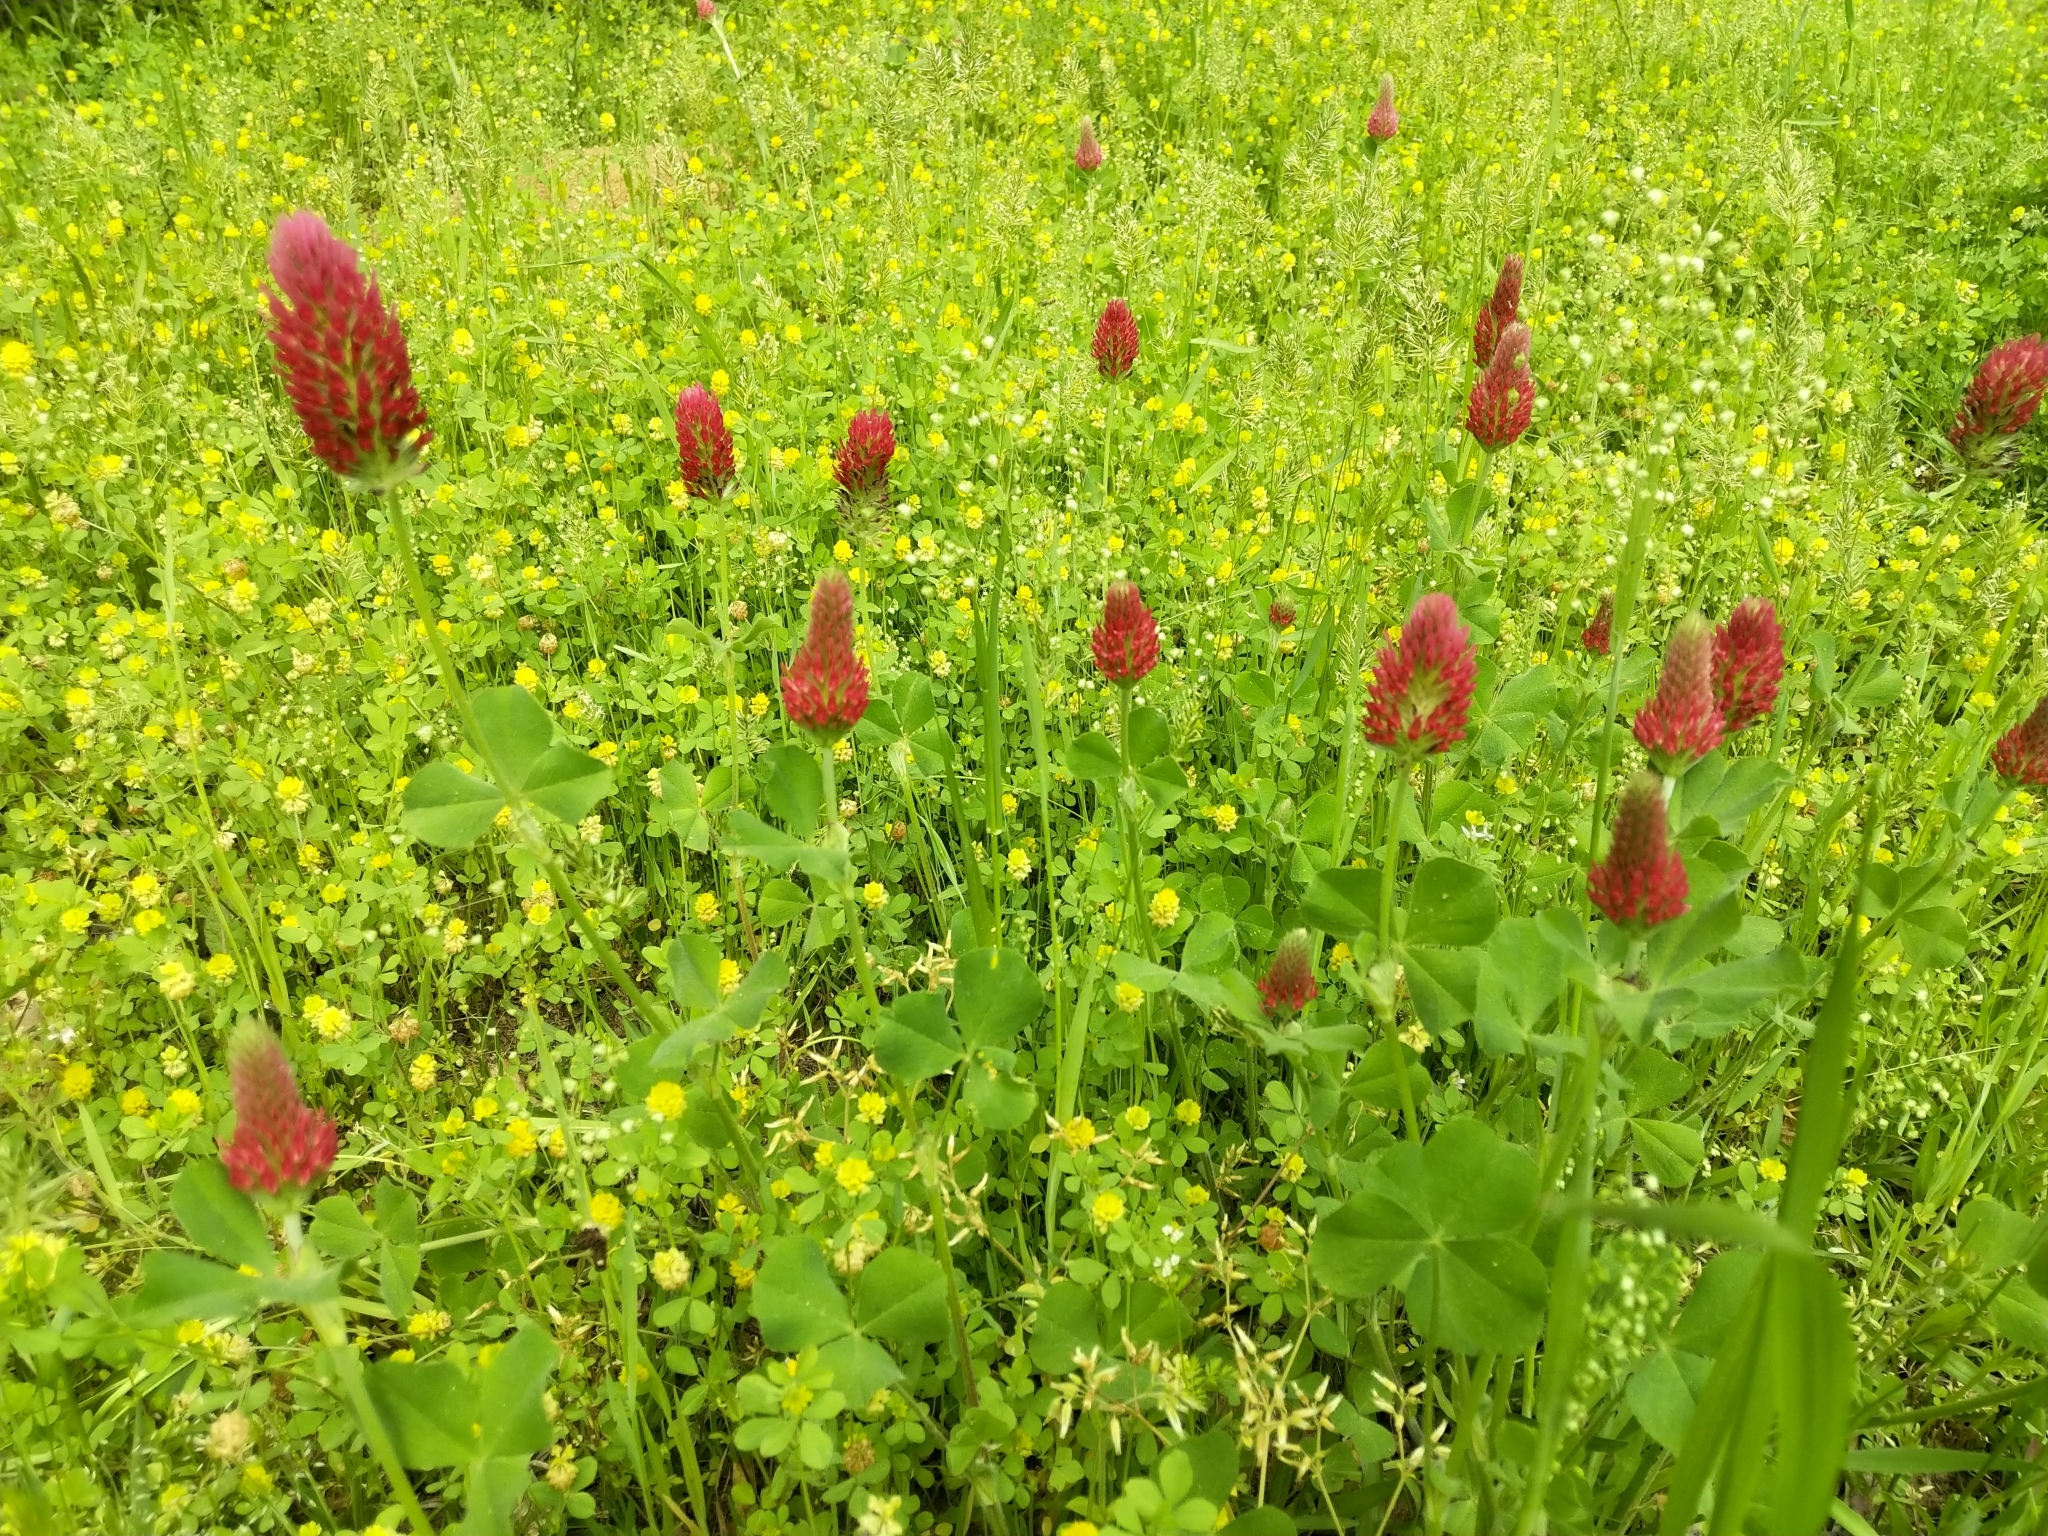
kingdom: Plantae
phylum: Tracheophyta
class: Magnoliopsida
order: Fabales
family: Fabaceae
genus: Trifolium
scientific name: Trifolium incarnatum
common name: Crimson clover
